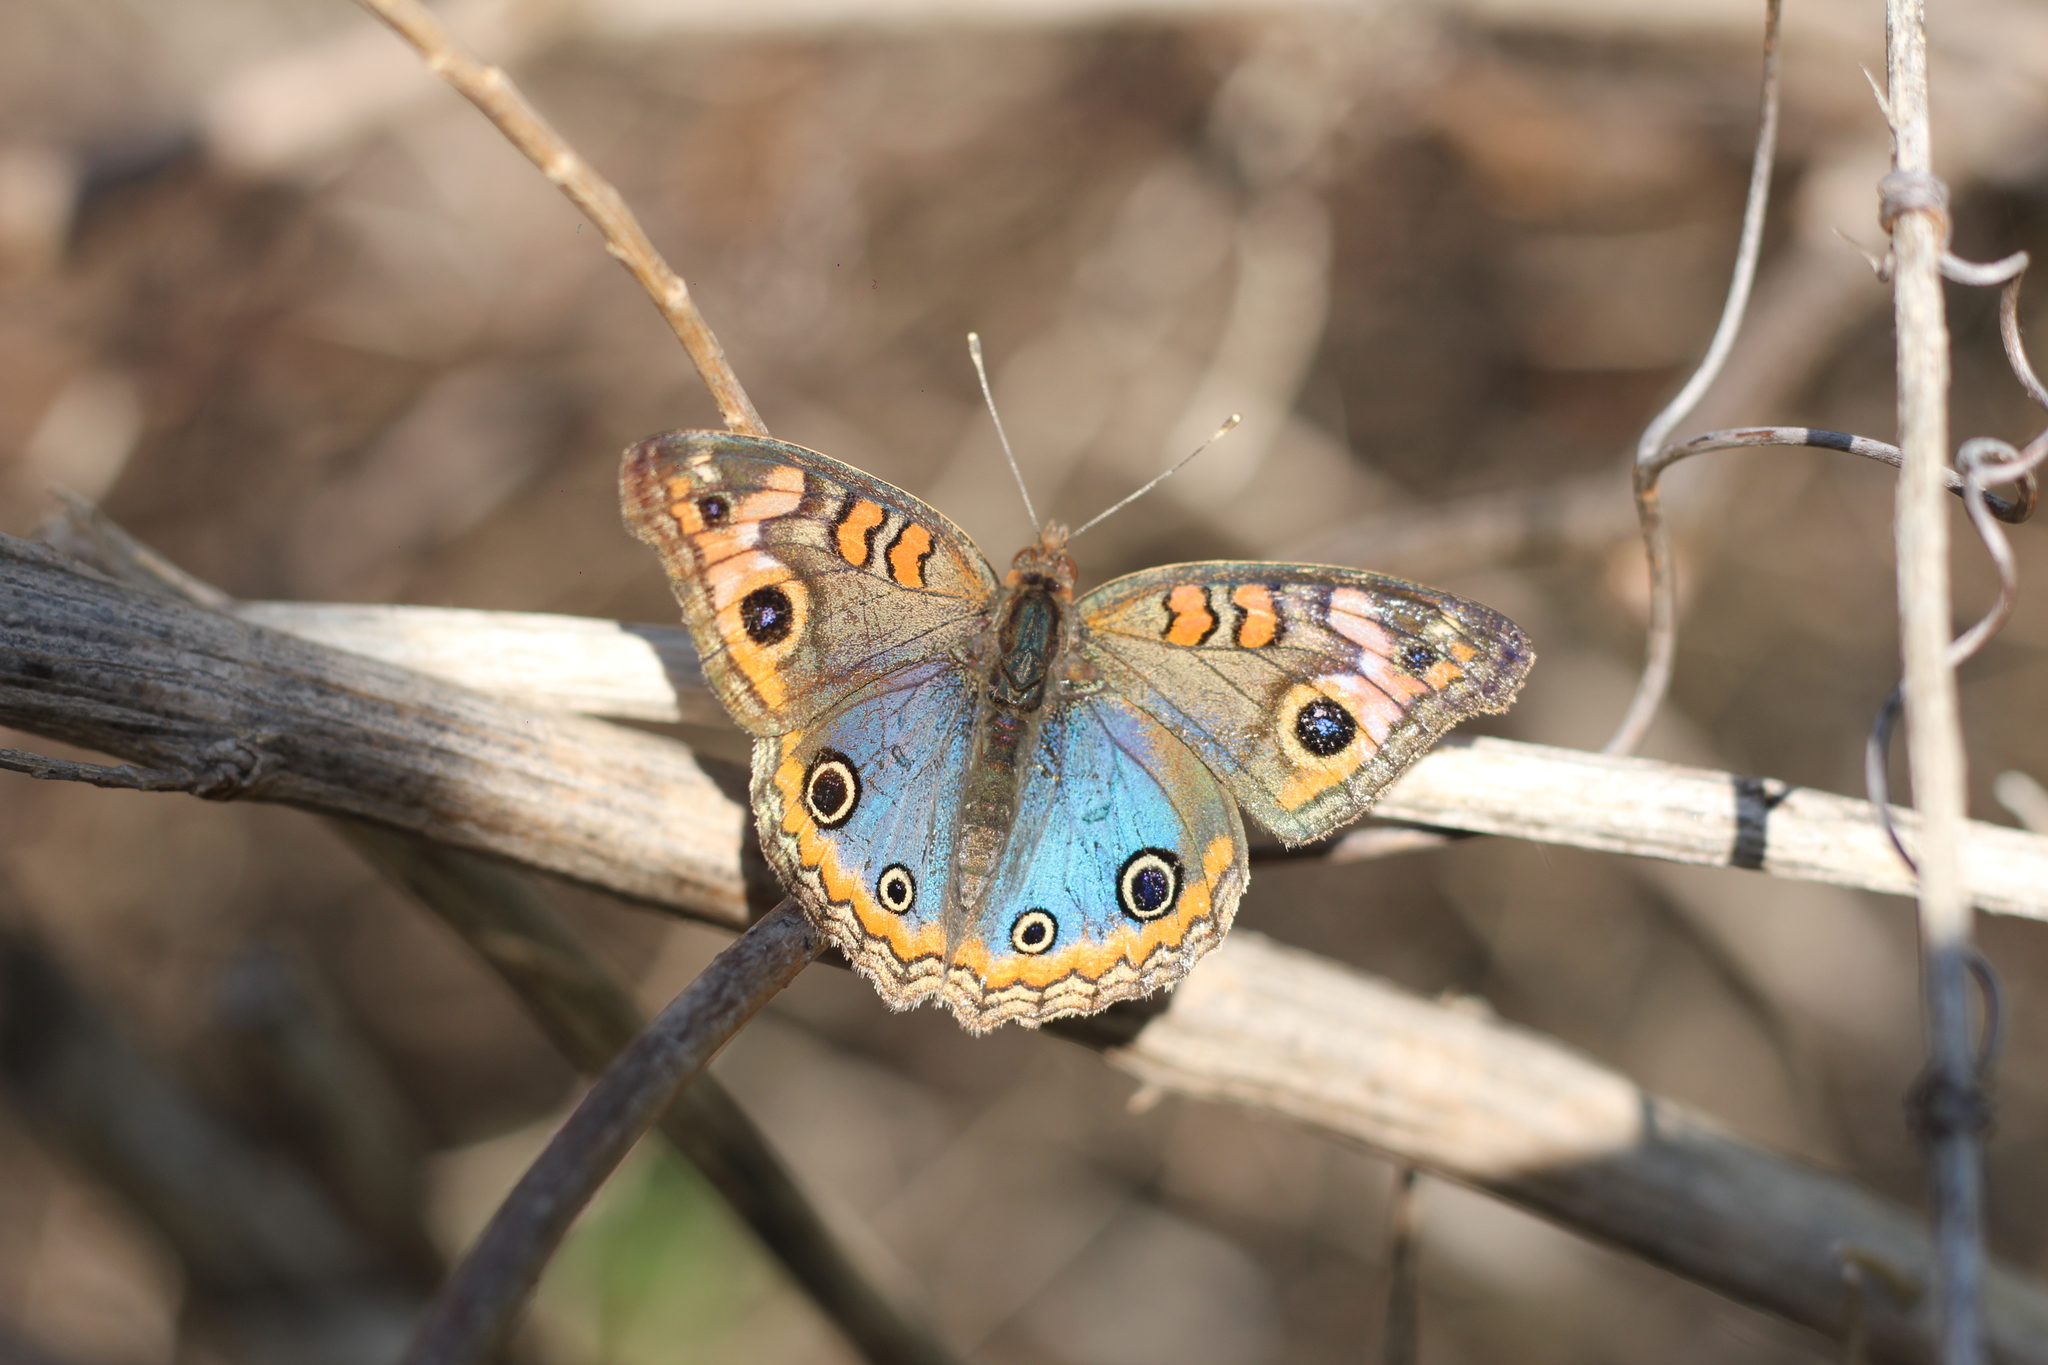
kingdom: Animalia
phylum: Arthropoda
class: Insecta
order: Lepidoptera
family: Nymphalidae
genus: Junonia
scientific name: Junonia lavinia
